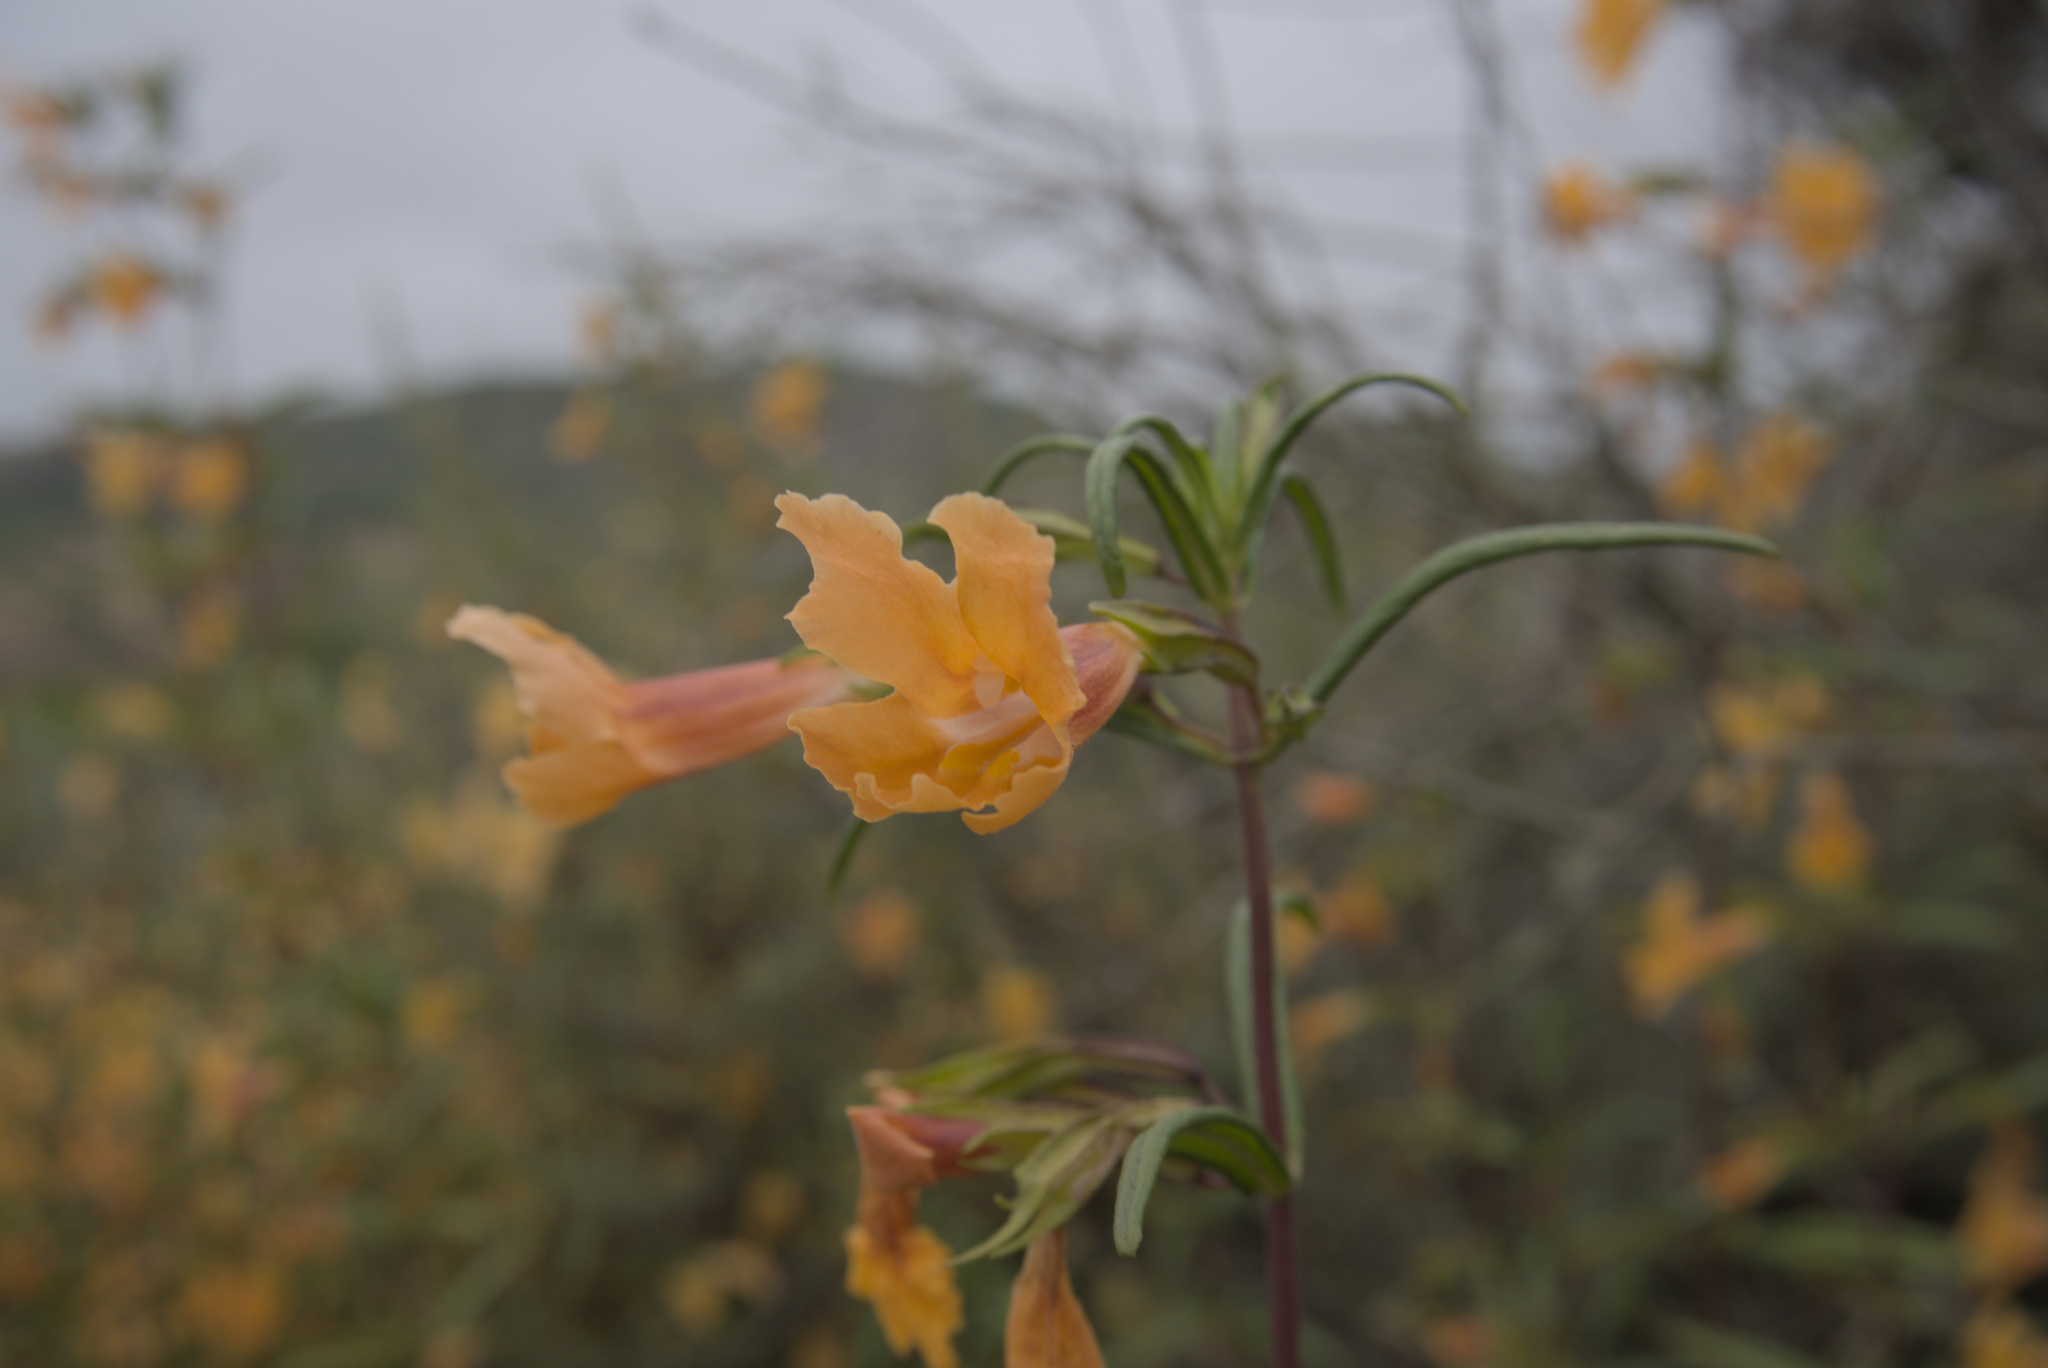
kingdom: Plantae
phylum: Tracheophyta
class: Magnoliopsida
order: Lamiales
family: Phrymaceae
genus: Diplacus
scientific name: Diplacus australis
